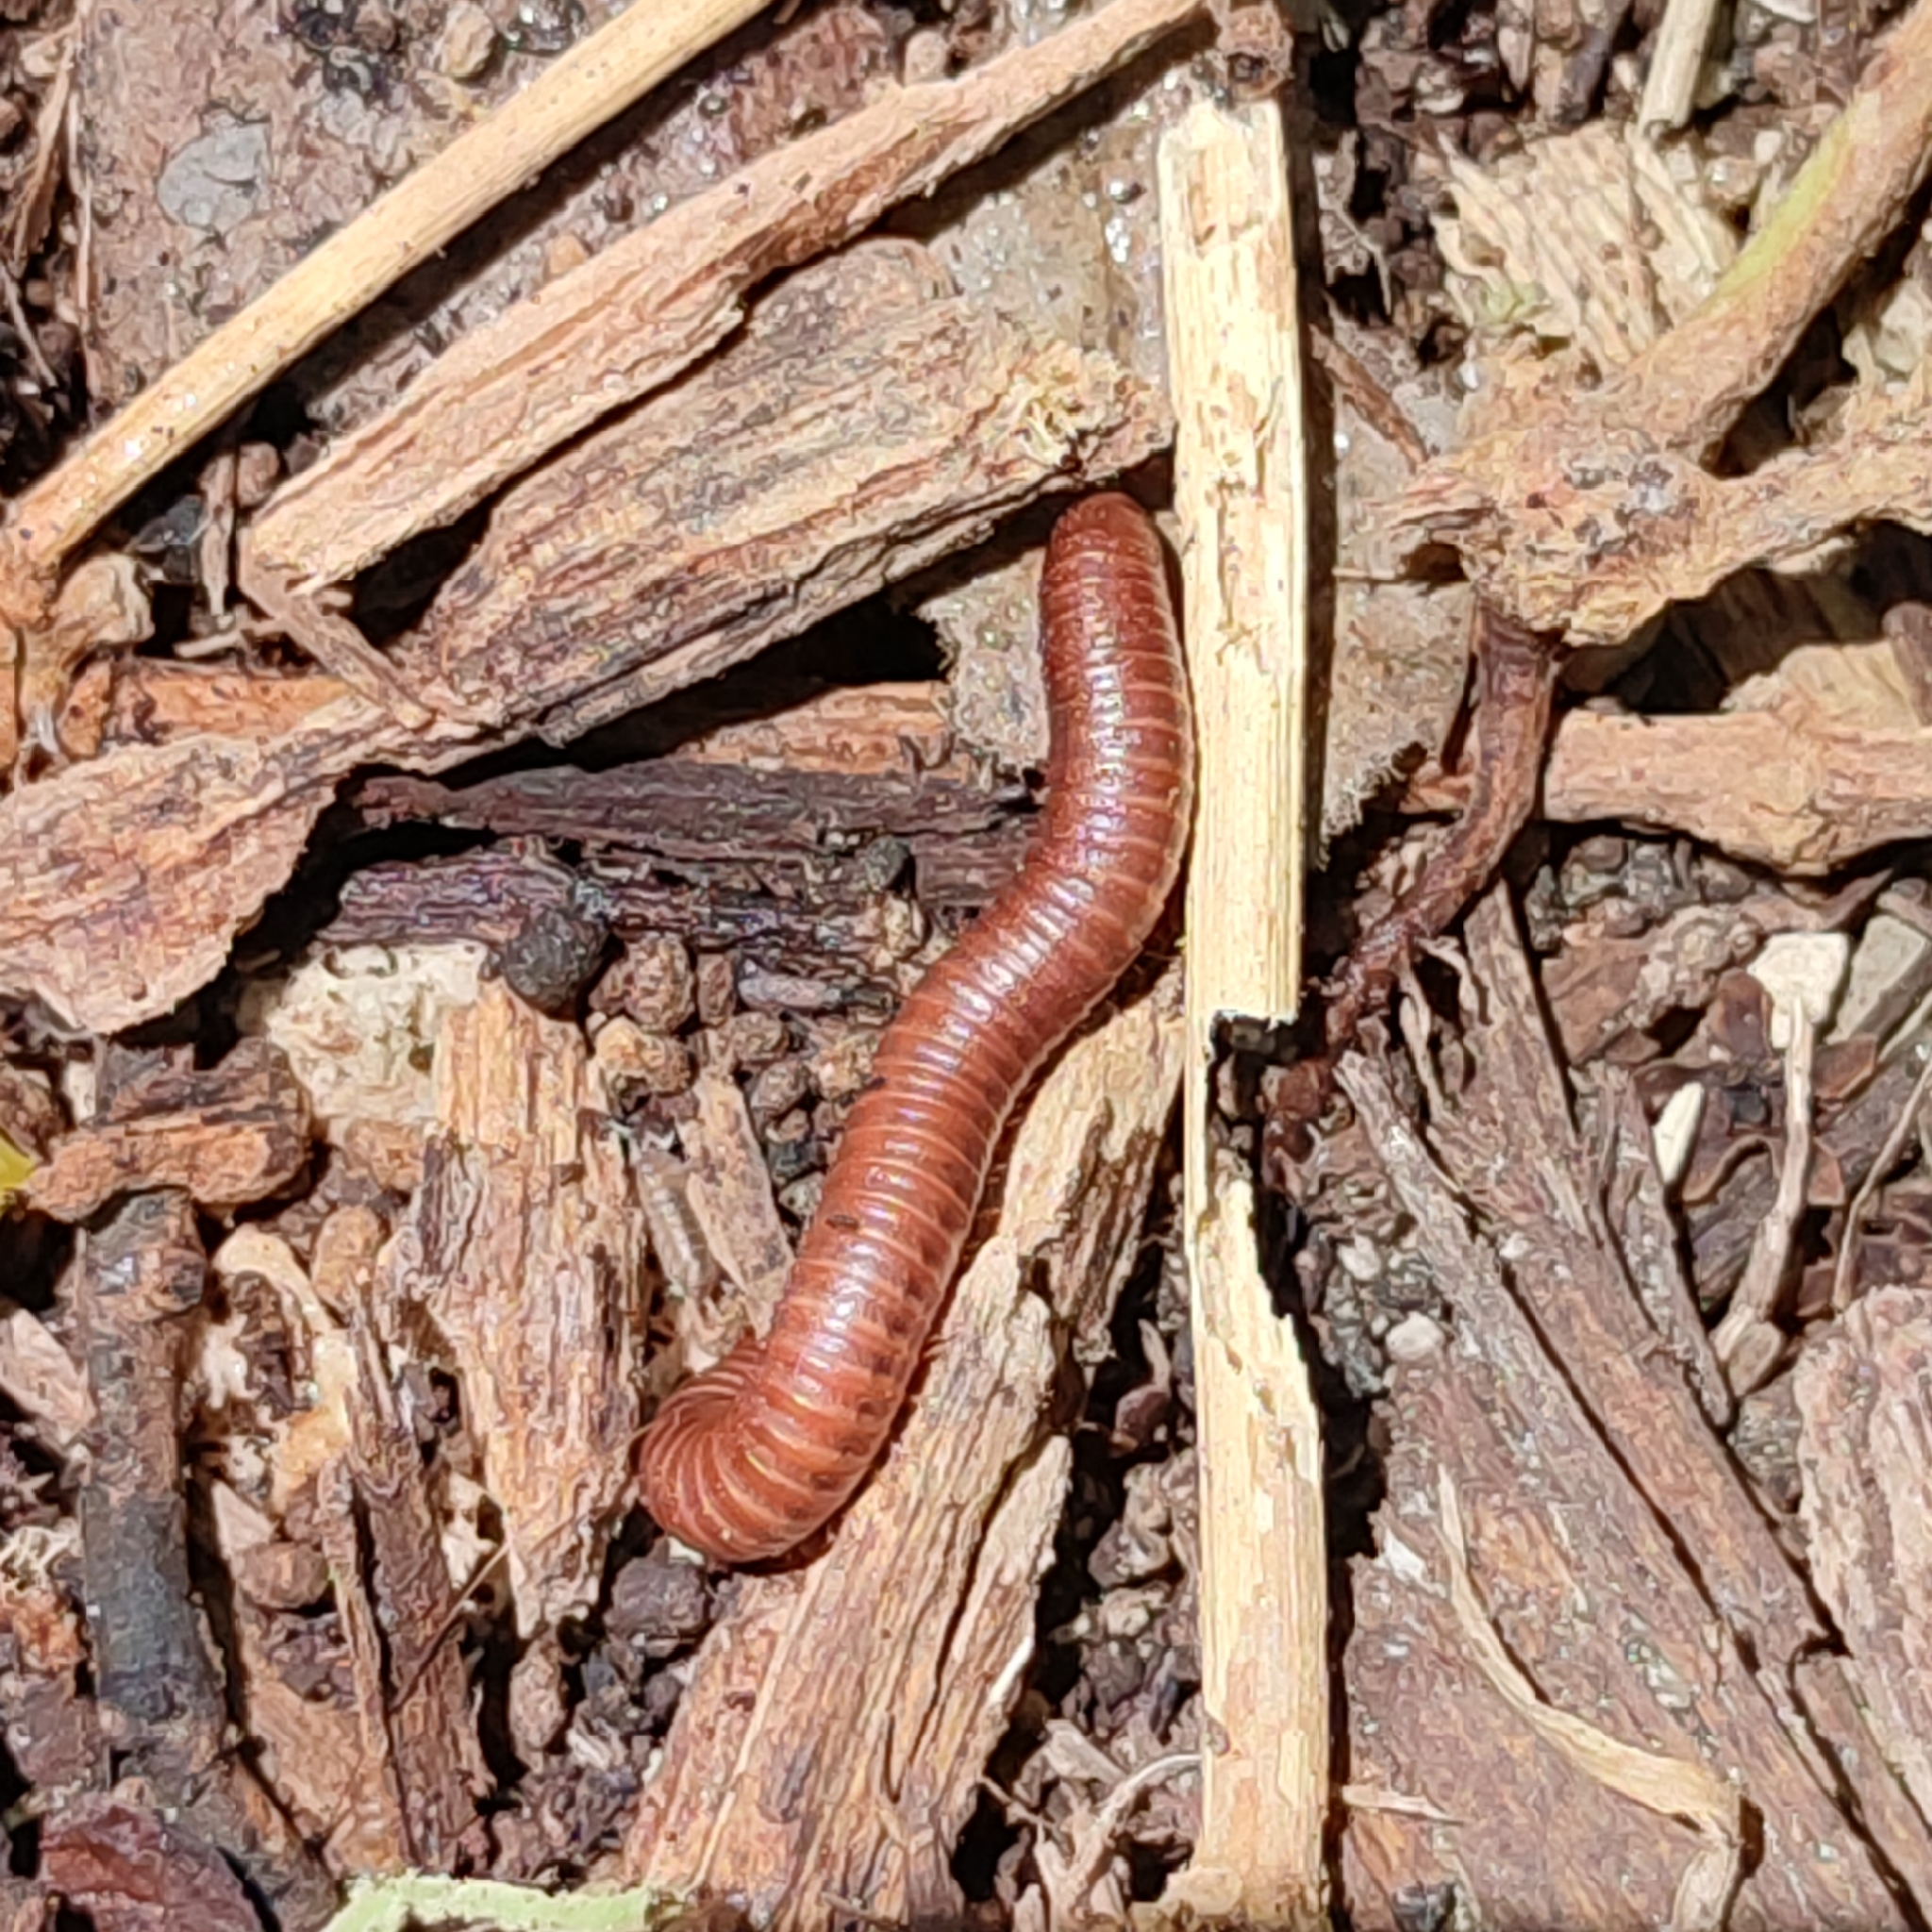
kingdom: Animalia
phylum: Arthropoda
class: Diplopoda
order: Spirobolida
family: Pachybolidae
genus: Trigoniulus
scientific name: Trigoniulus corallinus
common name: Millipede
